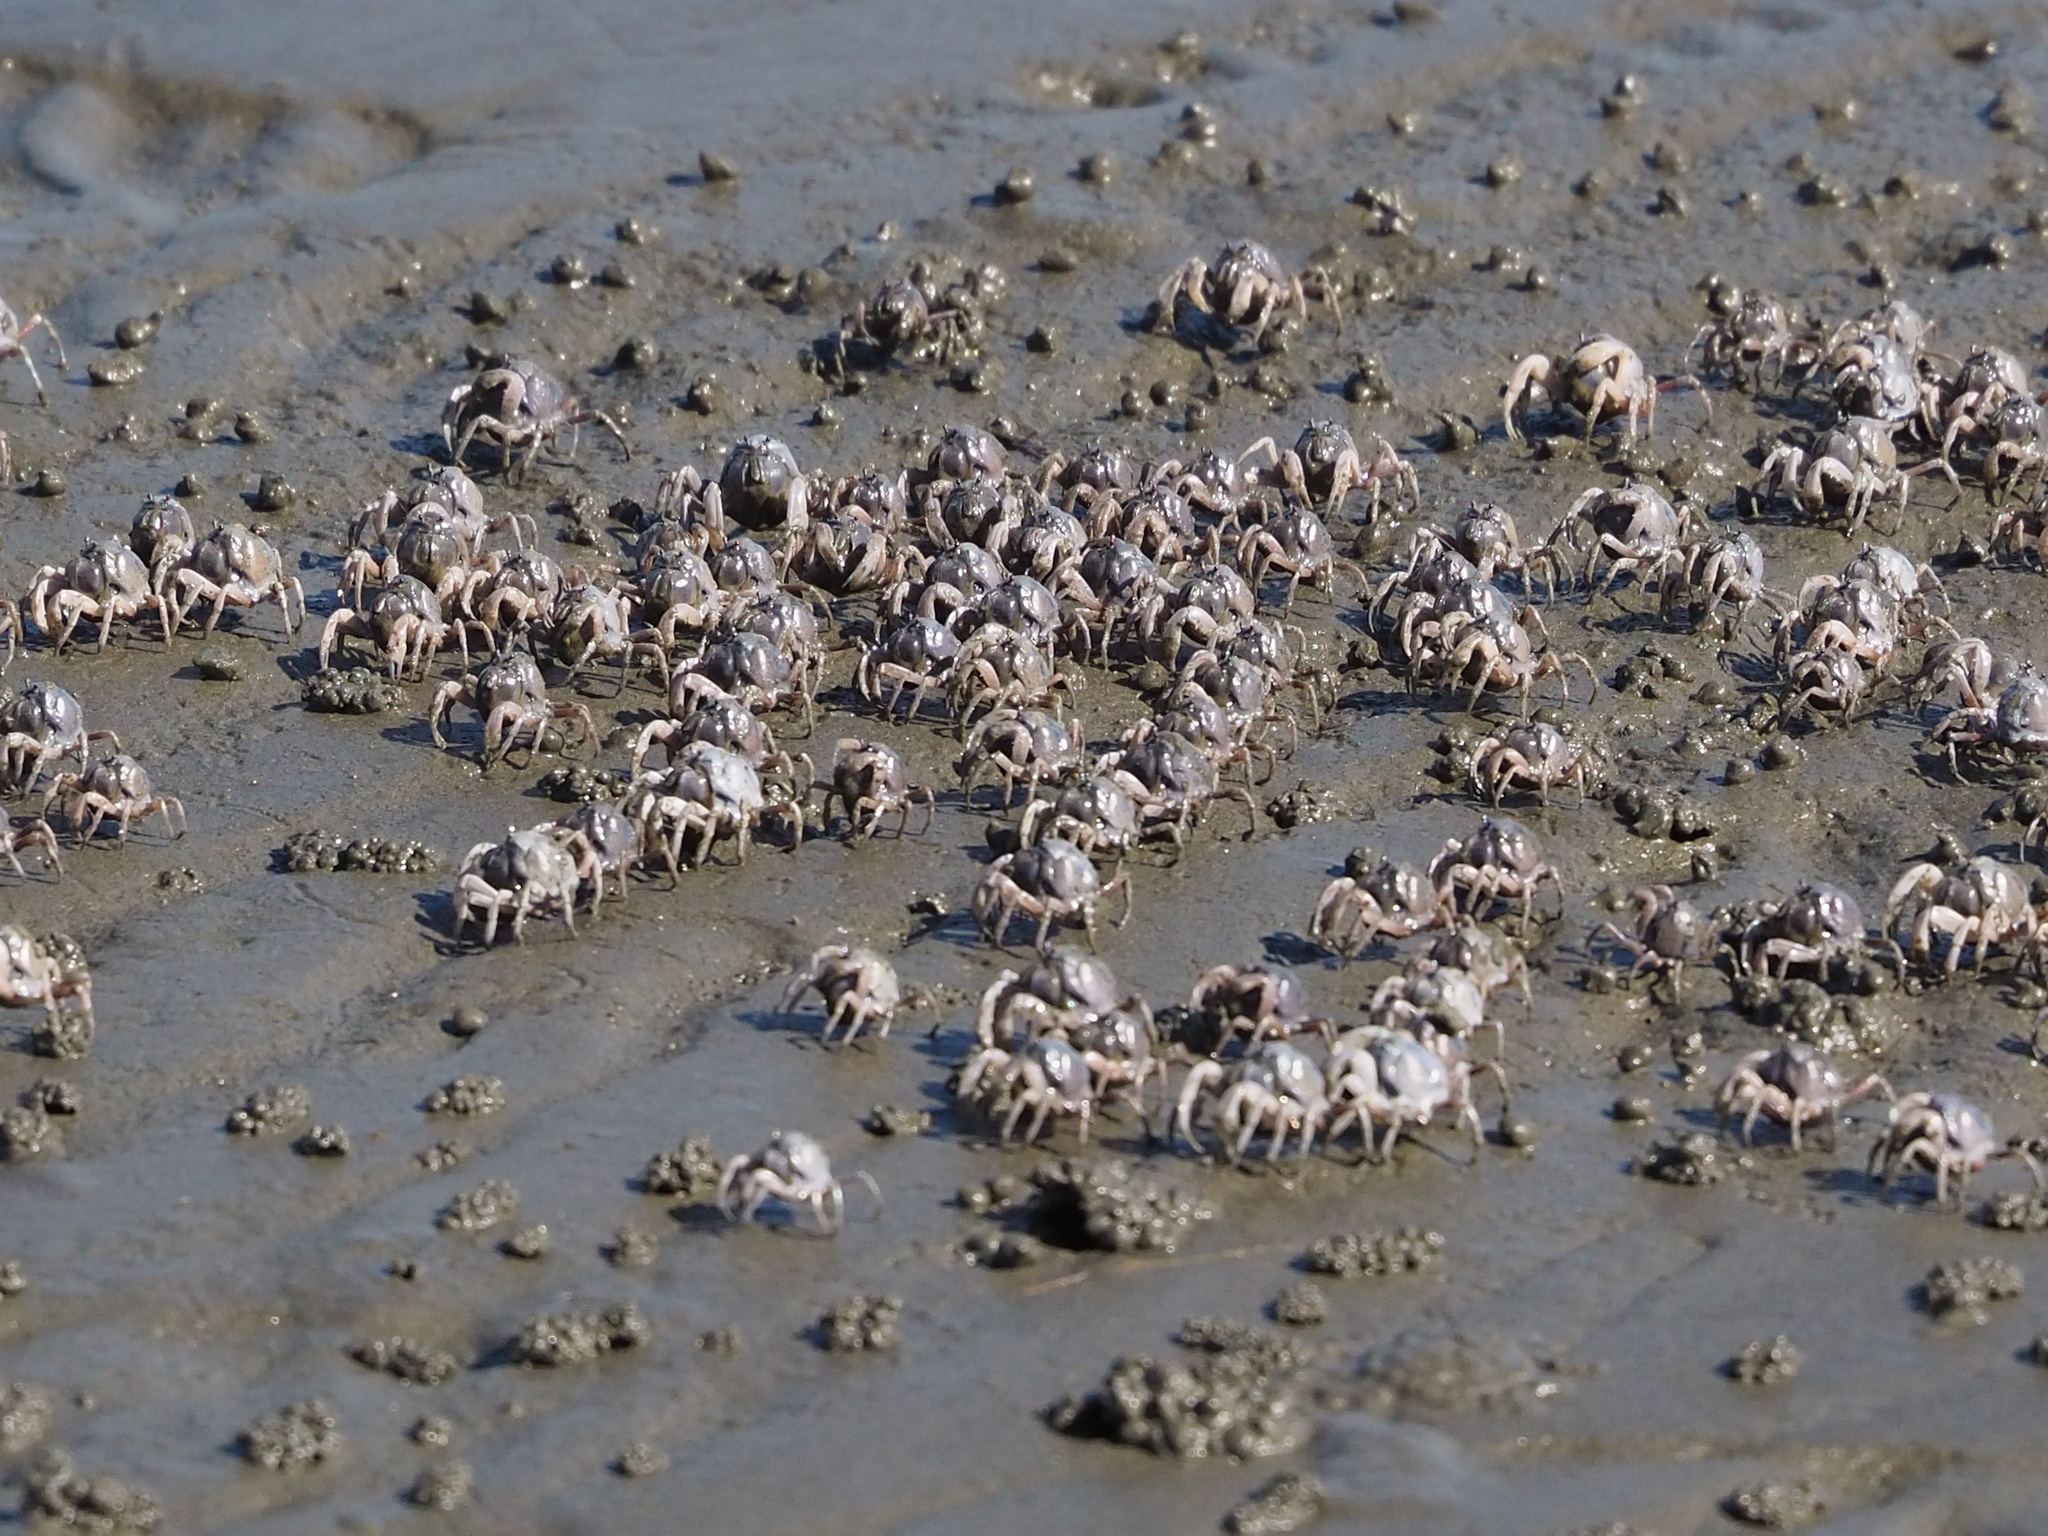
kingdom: Animalia
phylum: Arthropoda
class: Malacostraca
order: Decapoda
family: Mictyridae
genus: Mictyris
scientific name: Mictyris brevidactylus
